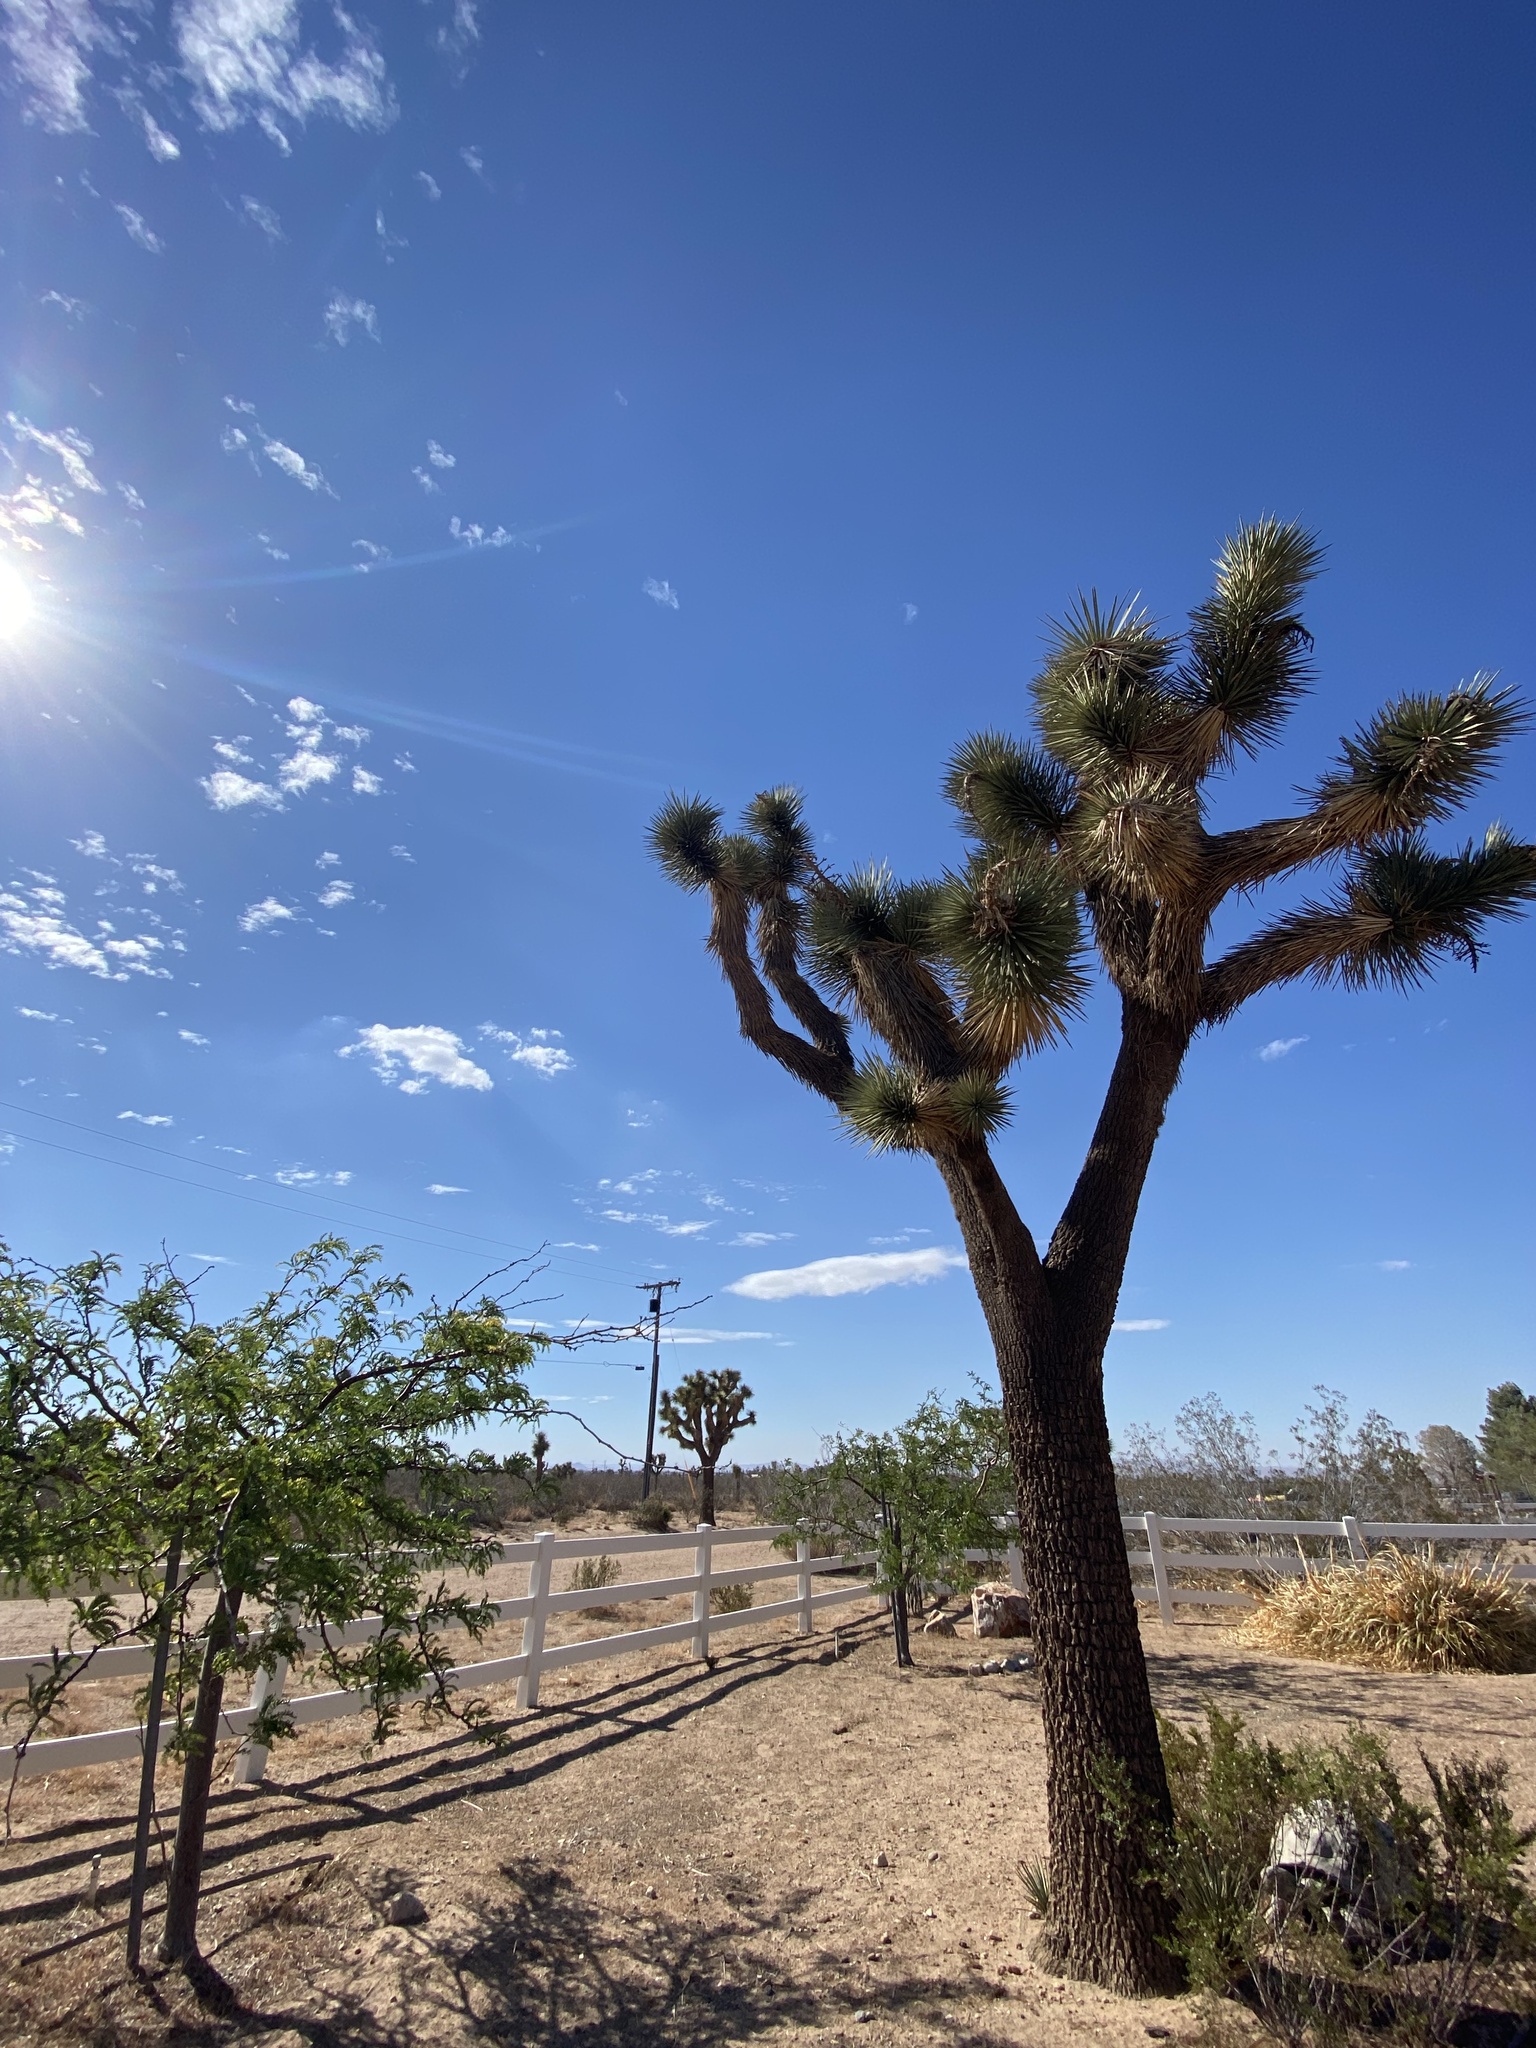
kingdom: Plantae
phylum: Tracheophyta
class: Liliopsida
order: Asparagales
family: Asparagaceae
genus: Yucca
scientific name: Yucca brevifolia
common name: Joshua tree
